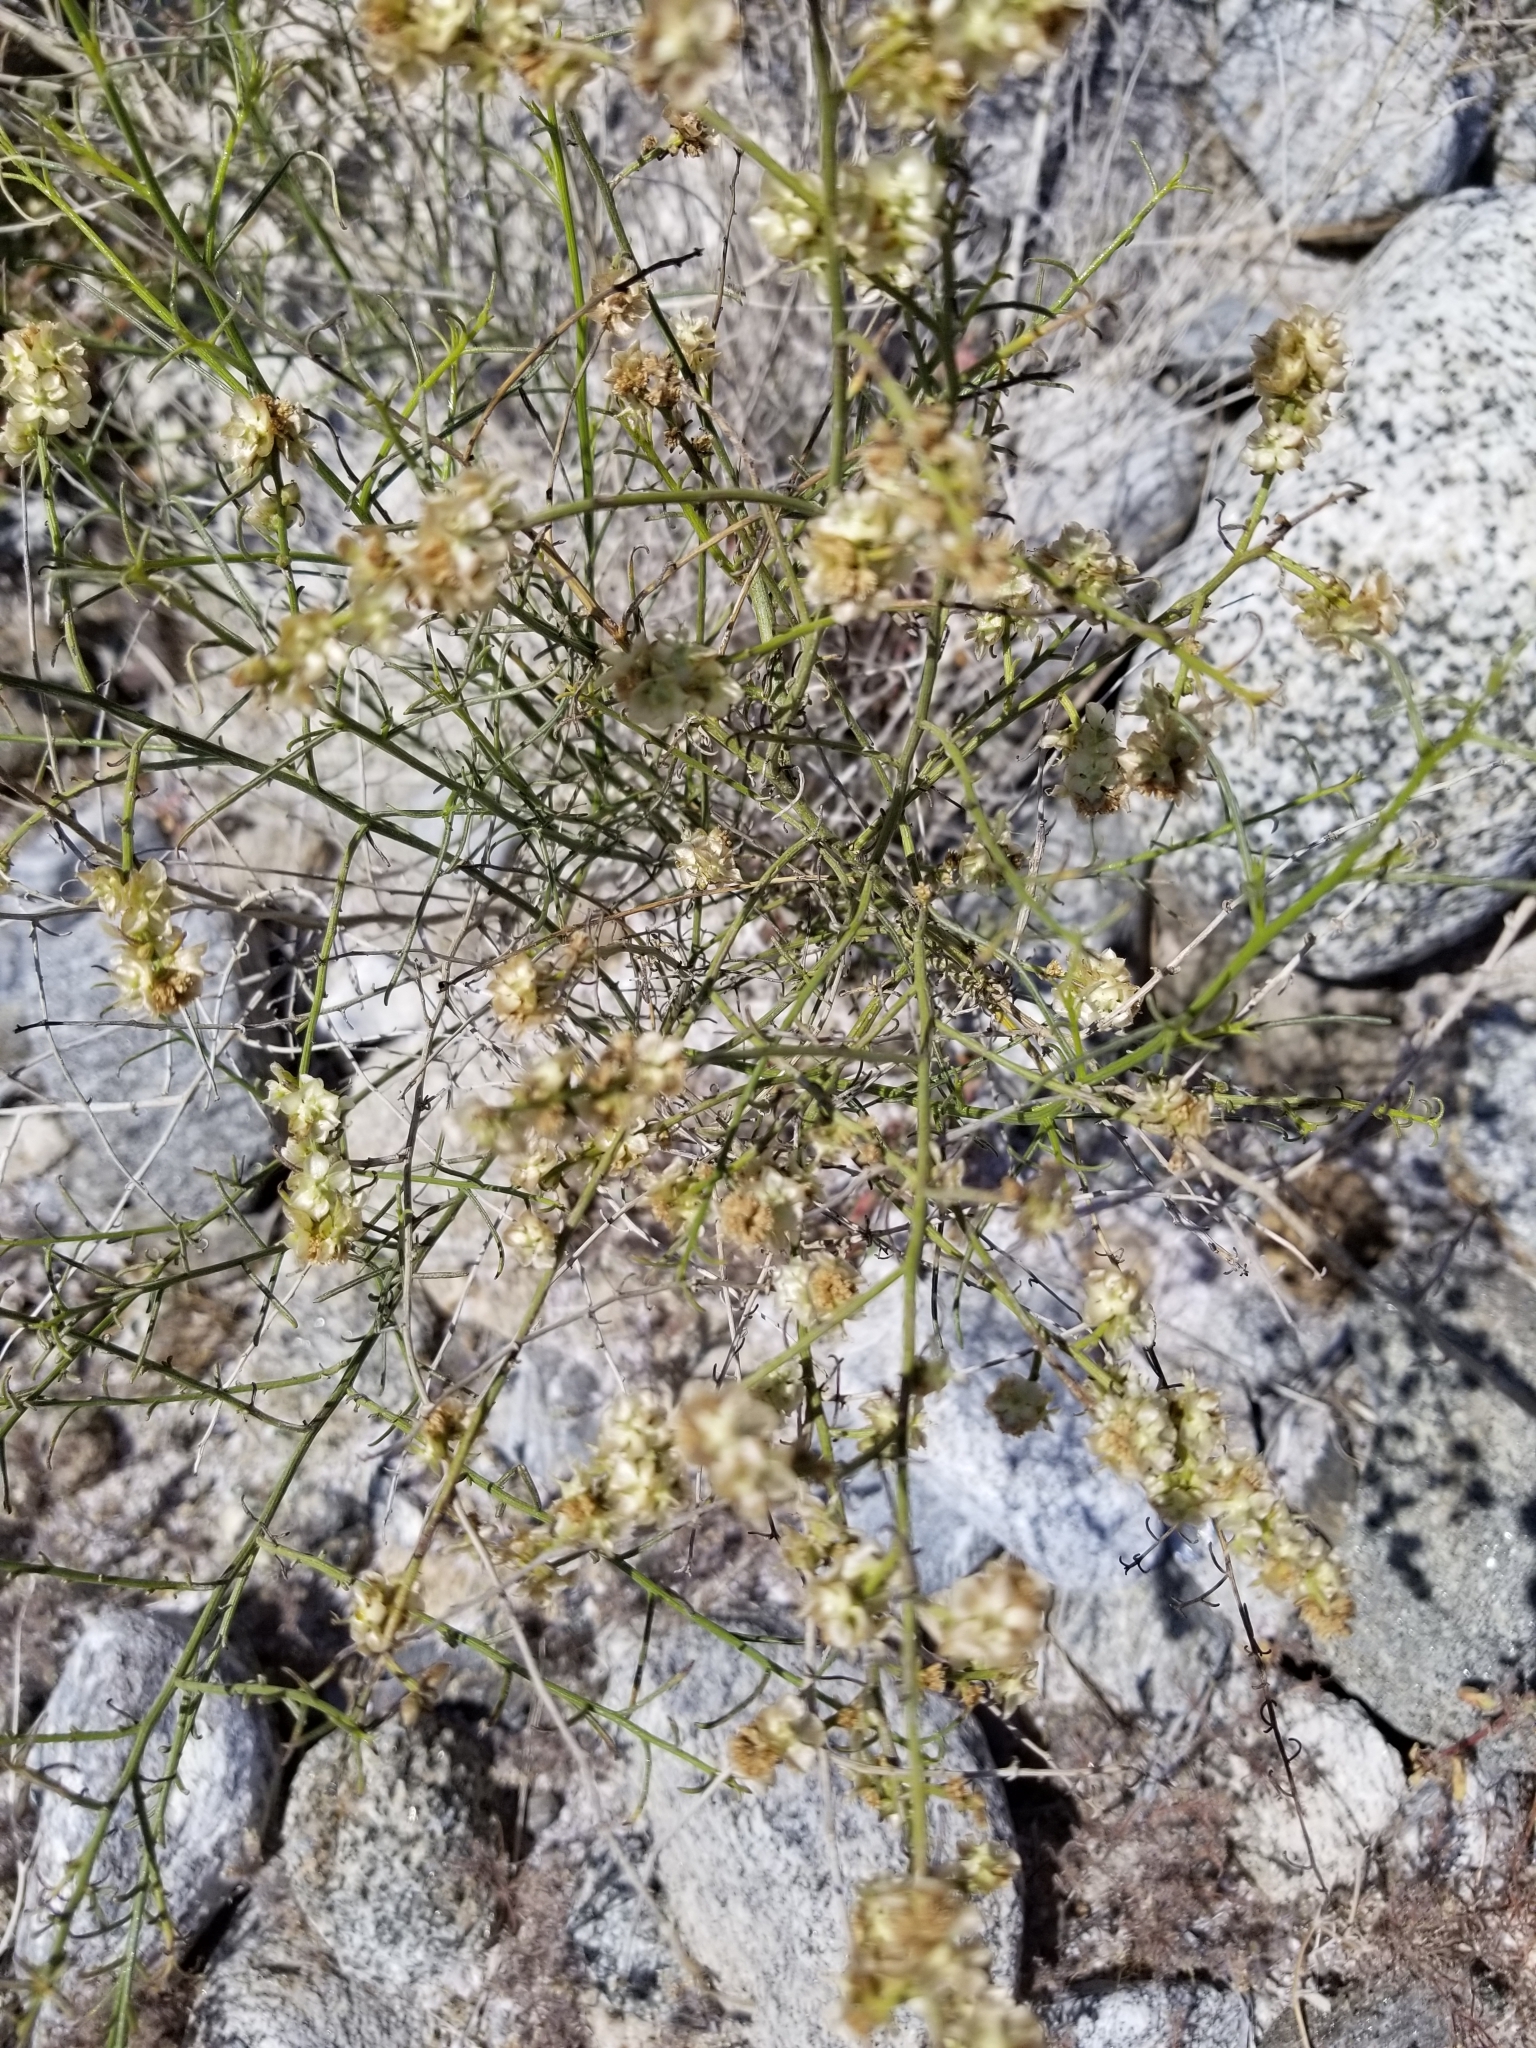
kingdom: Plantae
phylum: Tracheophyta
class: Magnoliopsida
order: Asterales
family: Asteraceae
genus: Ambrosia
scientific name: Ambrosia salsola
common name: Burrobrush
